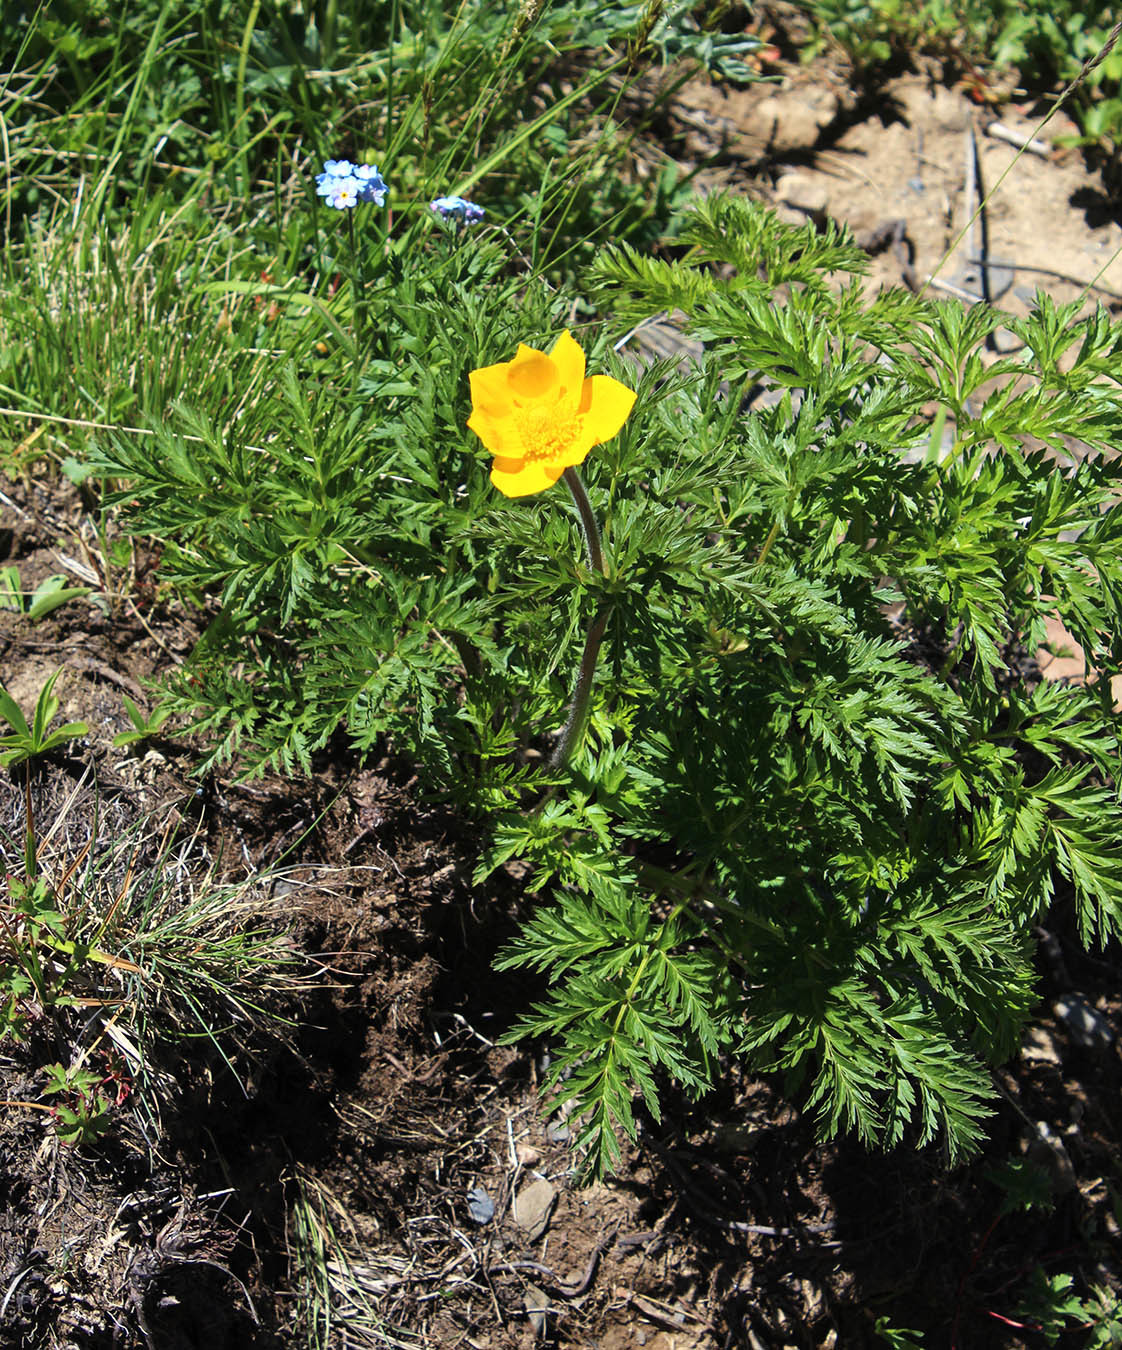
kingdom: Plantae
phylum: Tracheophyta
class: Magnoliopsida
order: Ranunculales
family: Ranunculaceae
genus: Pulsatilla
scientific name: Pulsatilla aurea
